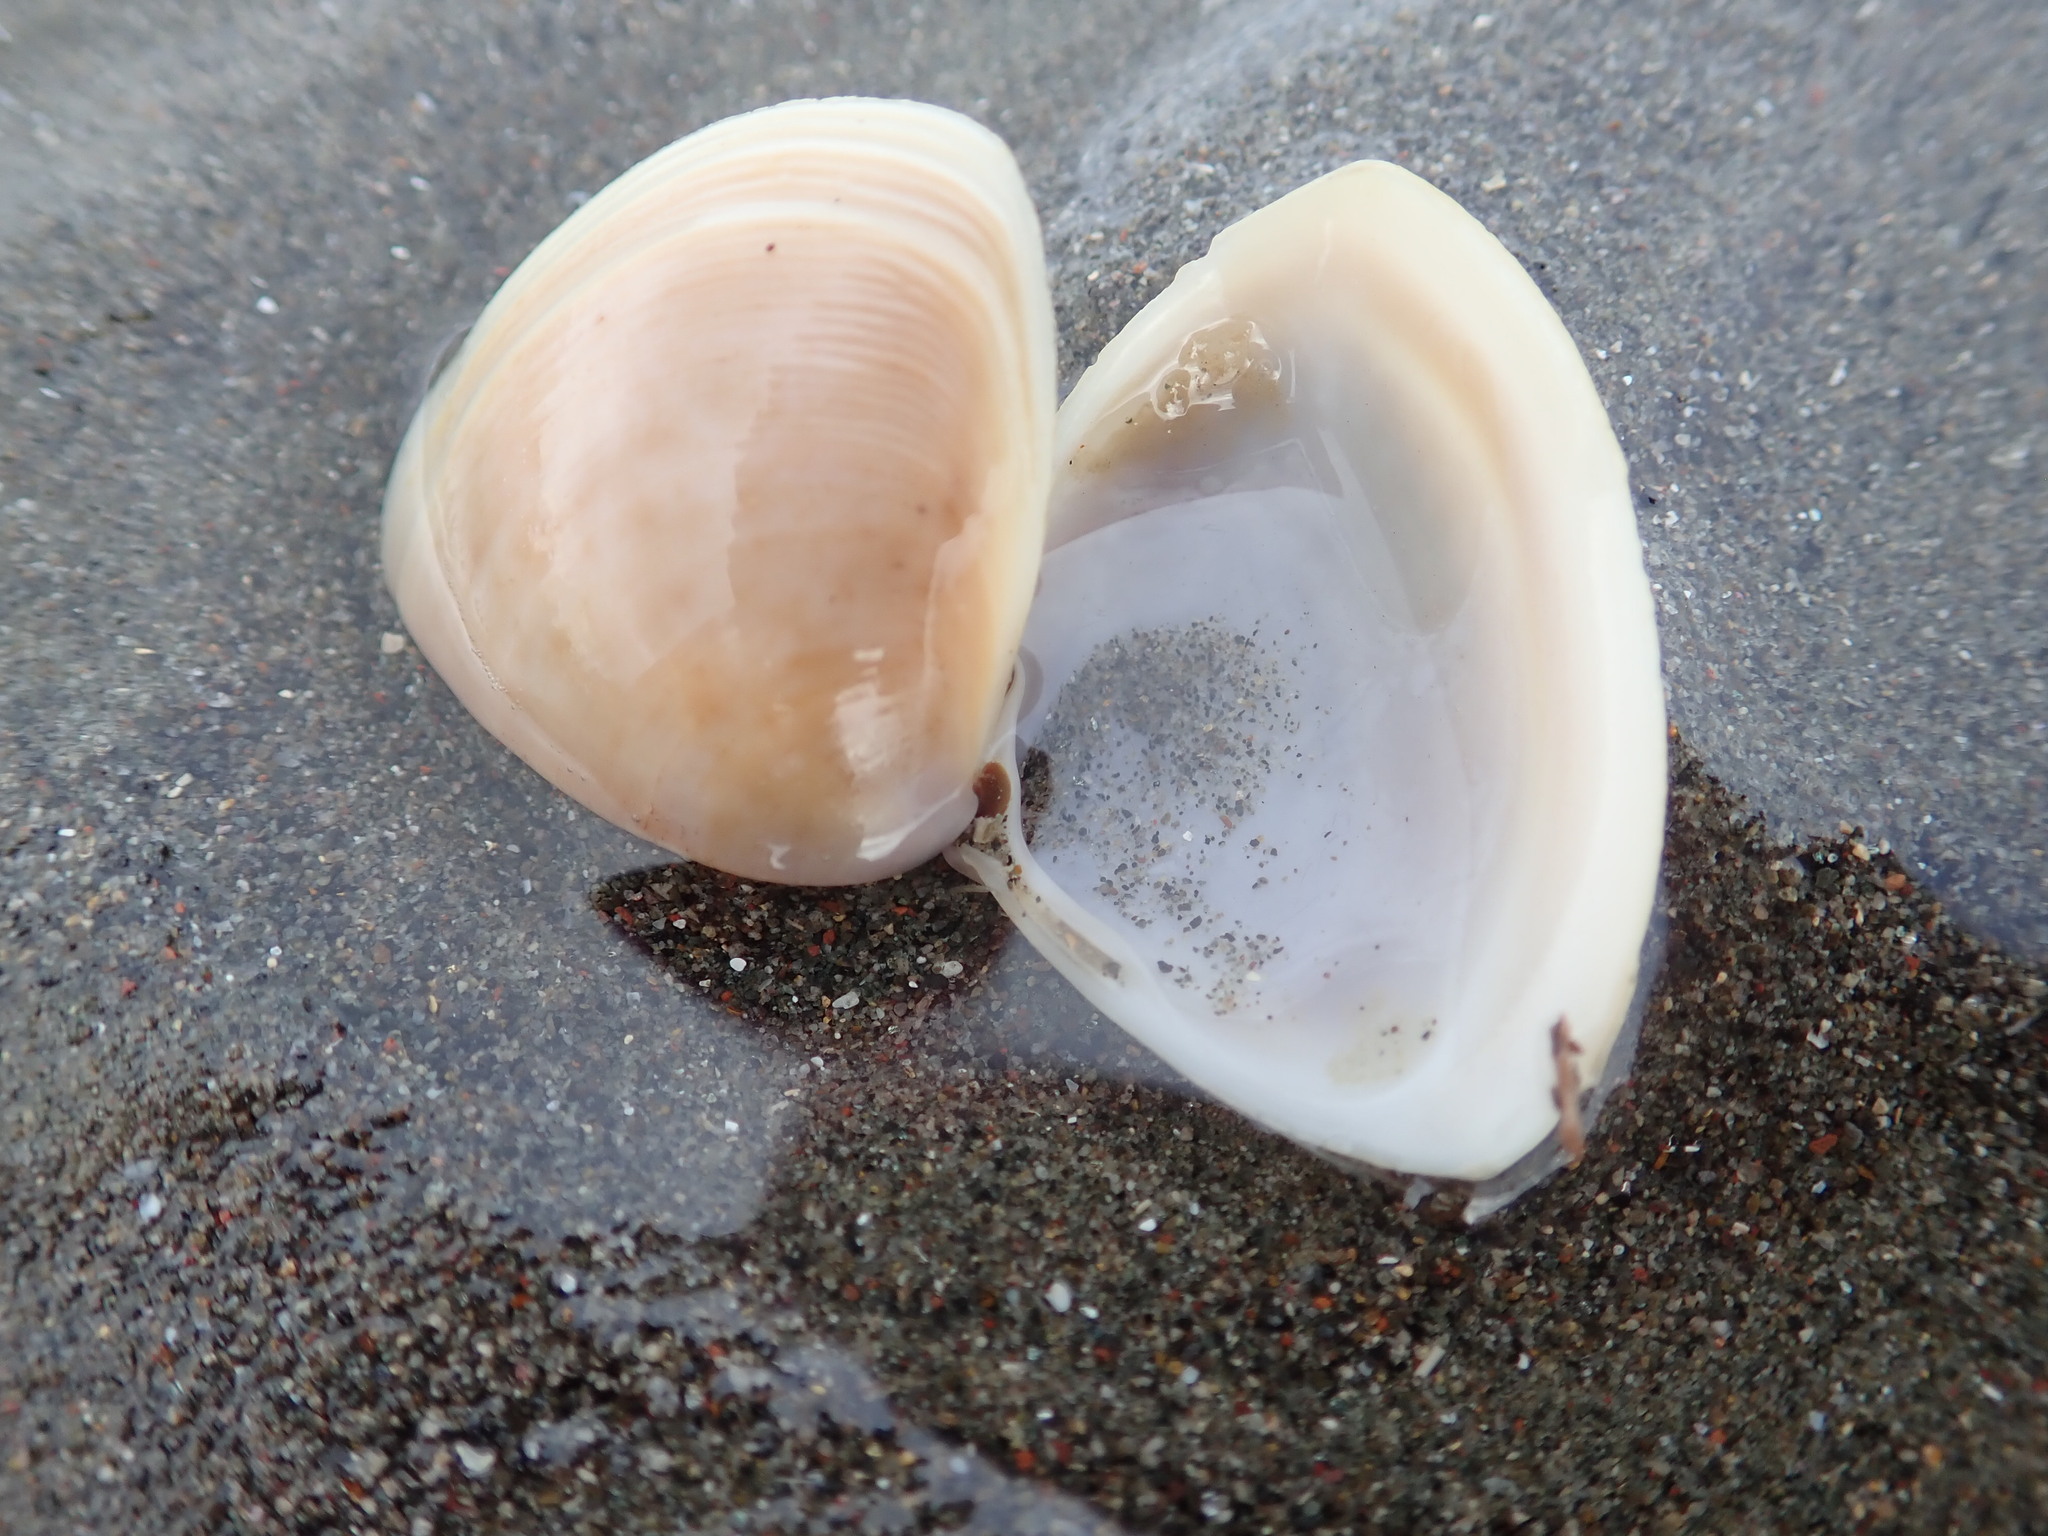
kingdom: Animalia
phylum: Mollusca
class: Bivalvia
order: Venerida
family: Mactridae
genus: Crassula
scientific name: Crassula aequilatera
